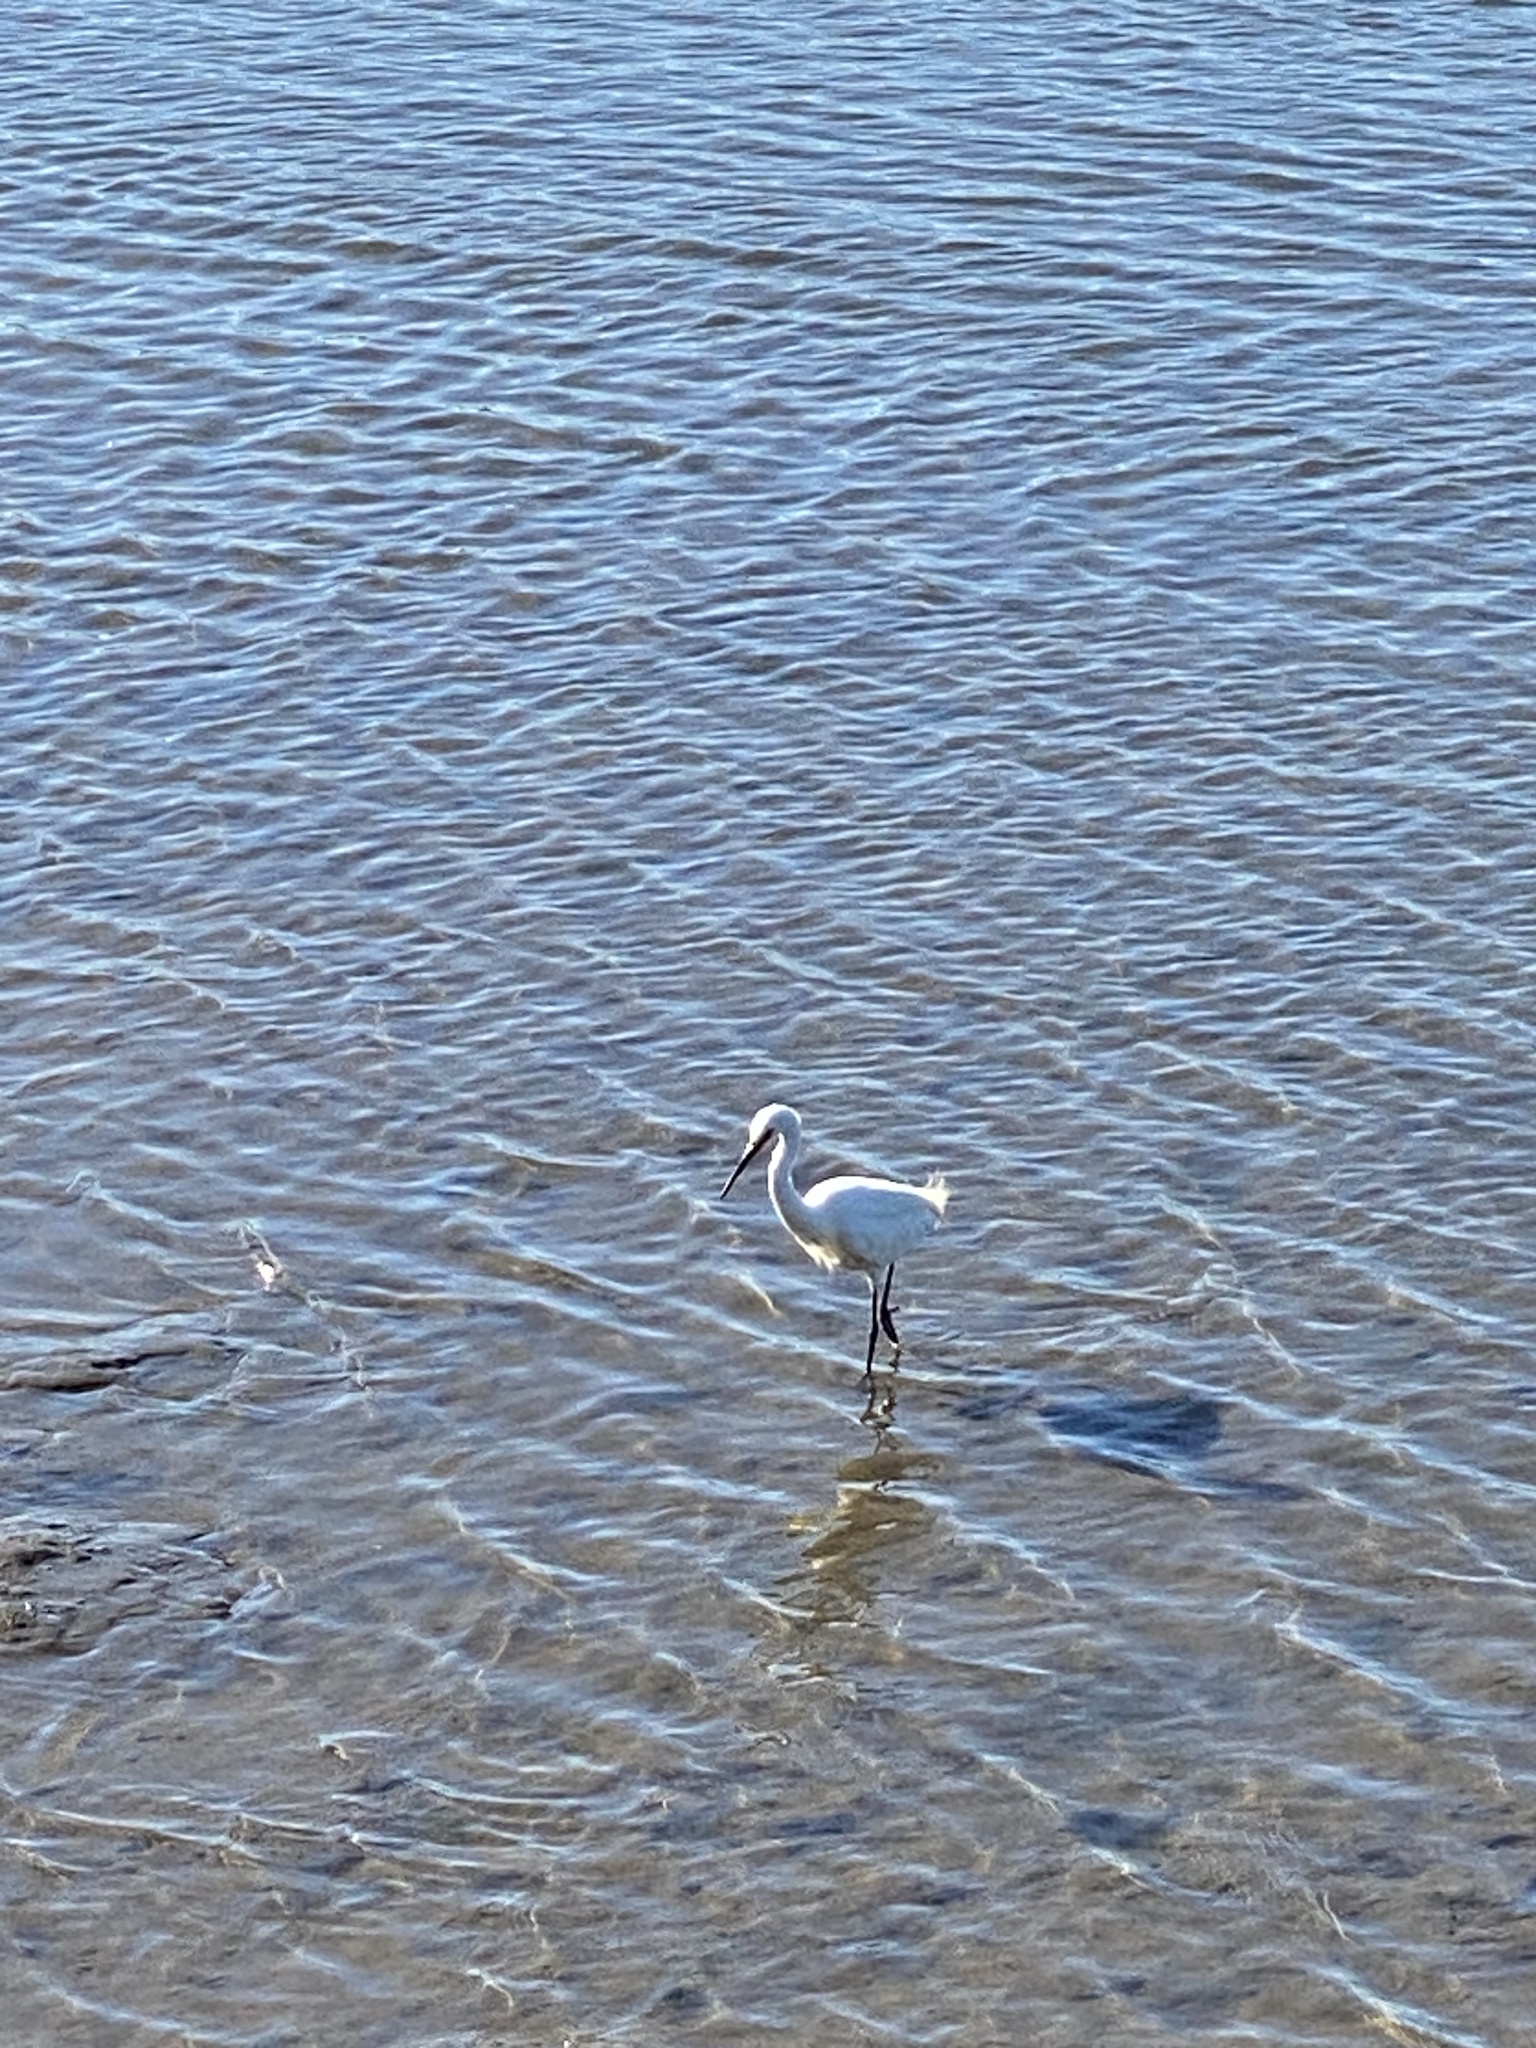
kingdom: Animalia
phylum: Chordata
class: Aves
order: Pelecaniformes
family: Ardeidae
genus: Egretta
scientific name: Egretta garzetta
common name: Little egret
